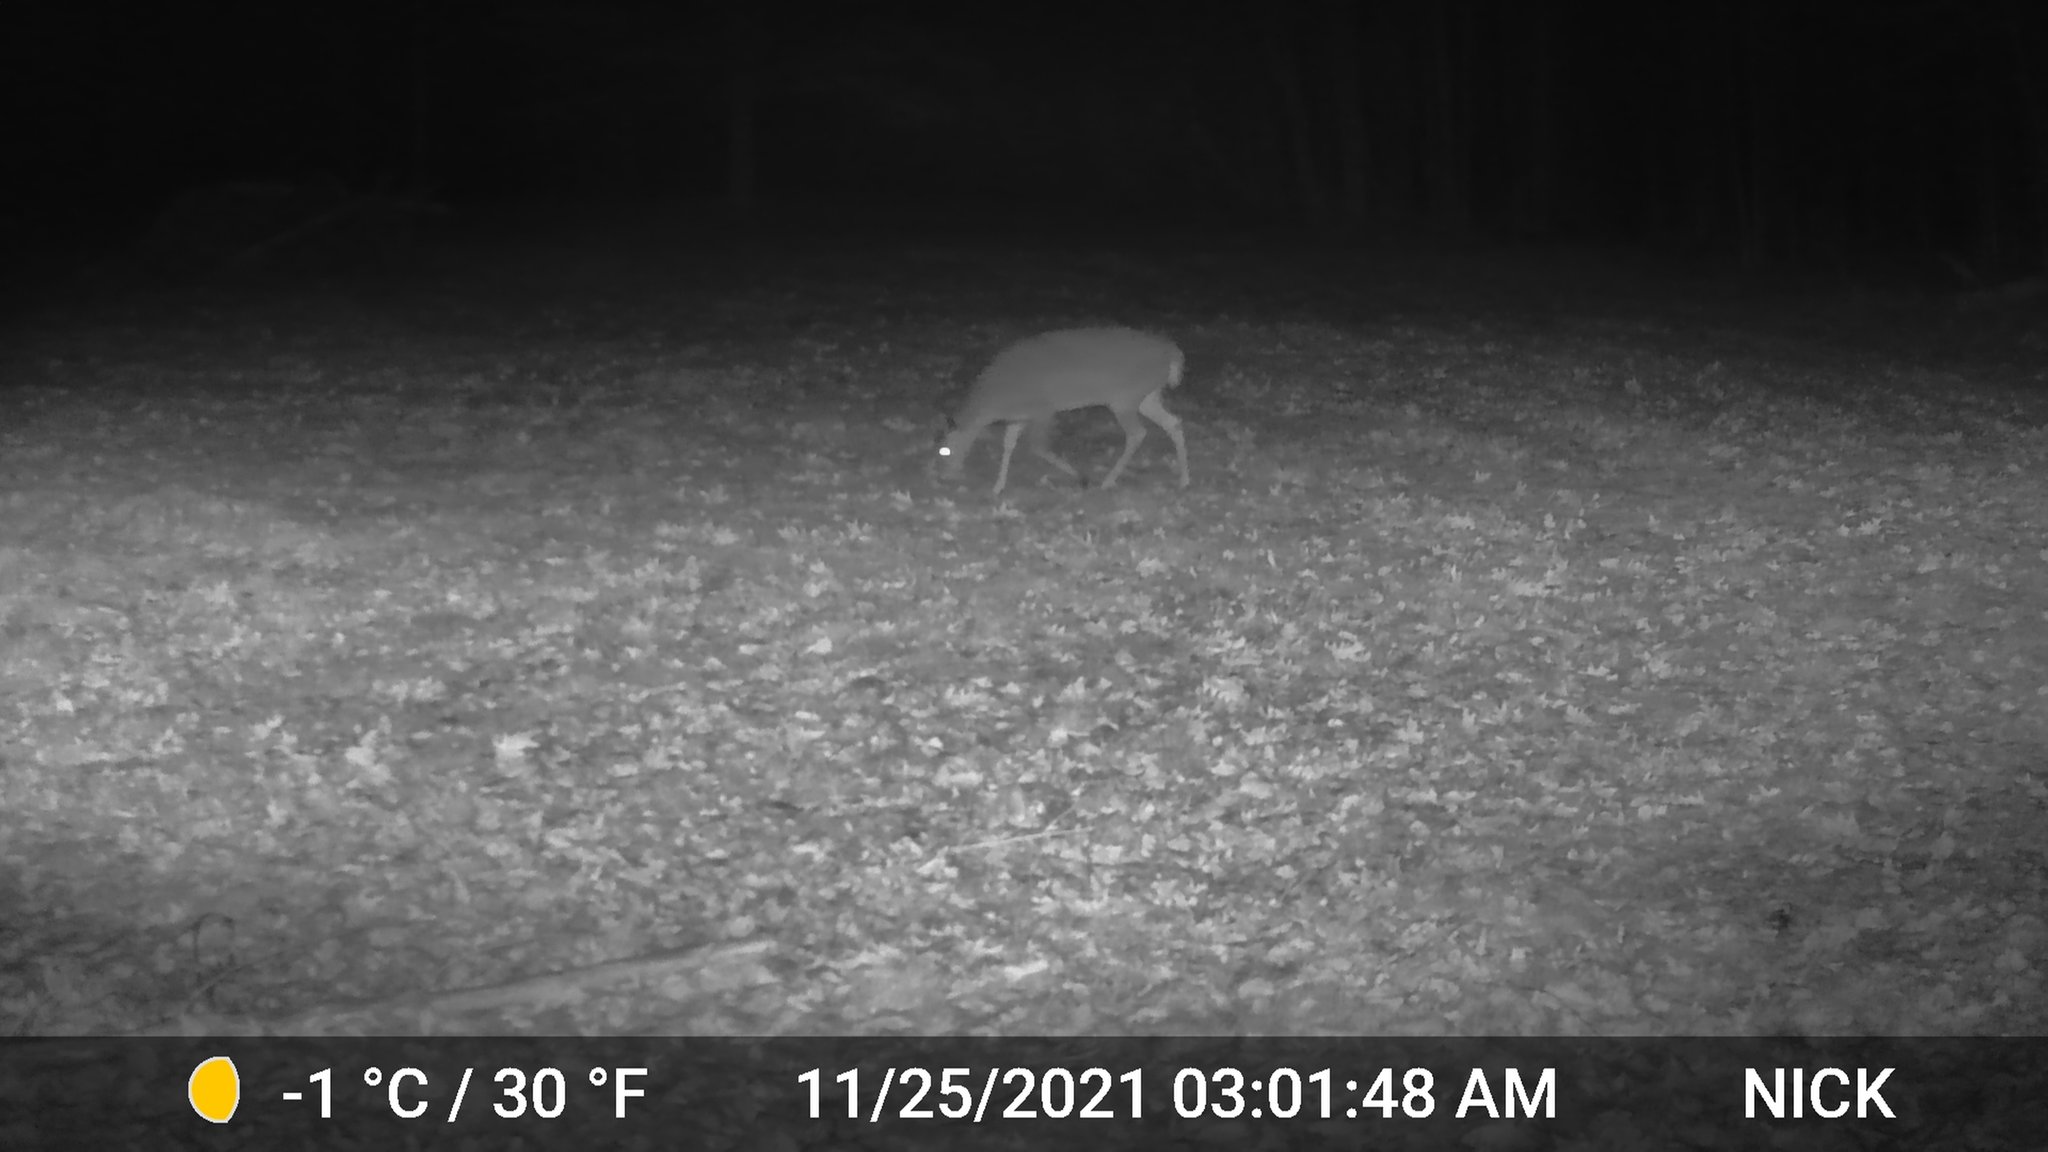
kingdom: Animalia
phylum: Chordata
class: Mammalia
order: Artiodactyla
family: Cervidae
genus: Odocoileus
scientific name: Odocoileus virginianus
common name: White-tailed deer
